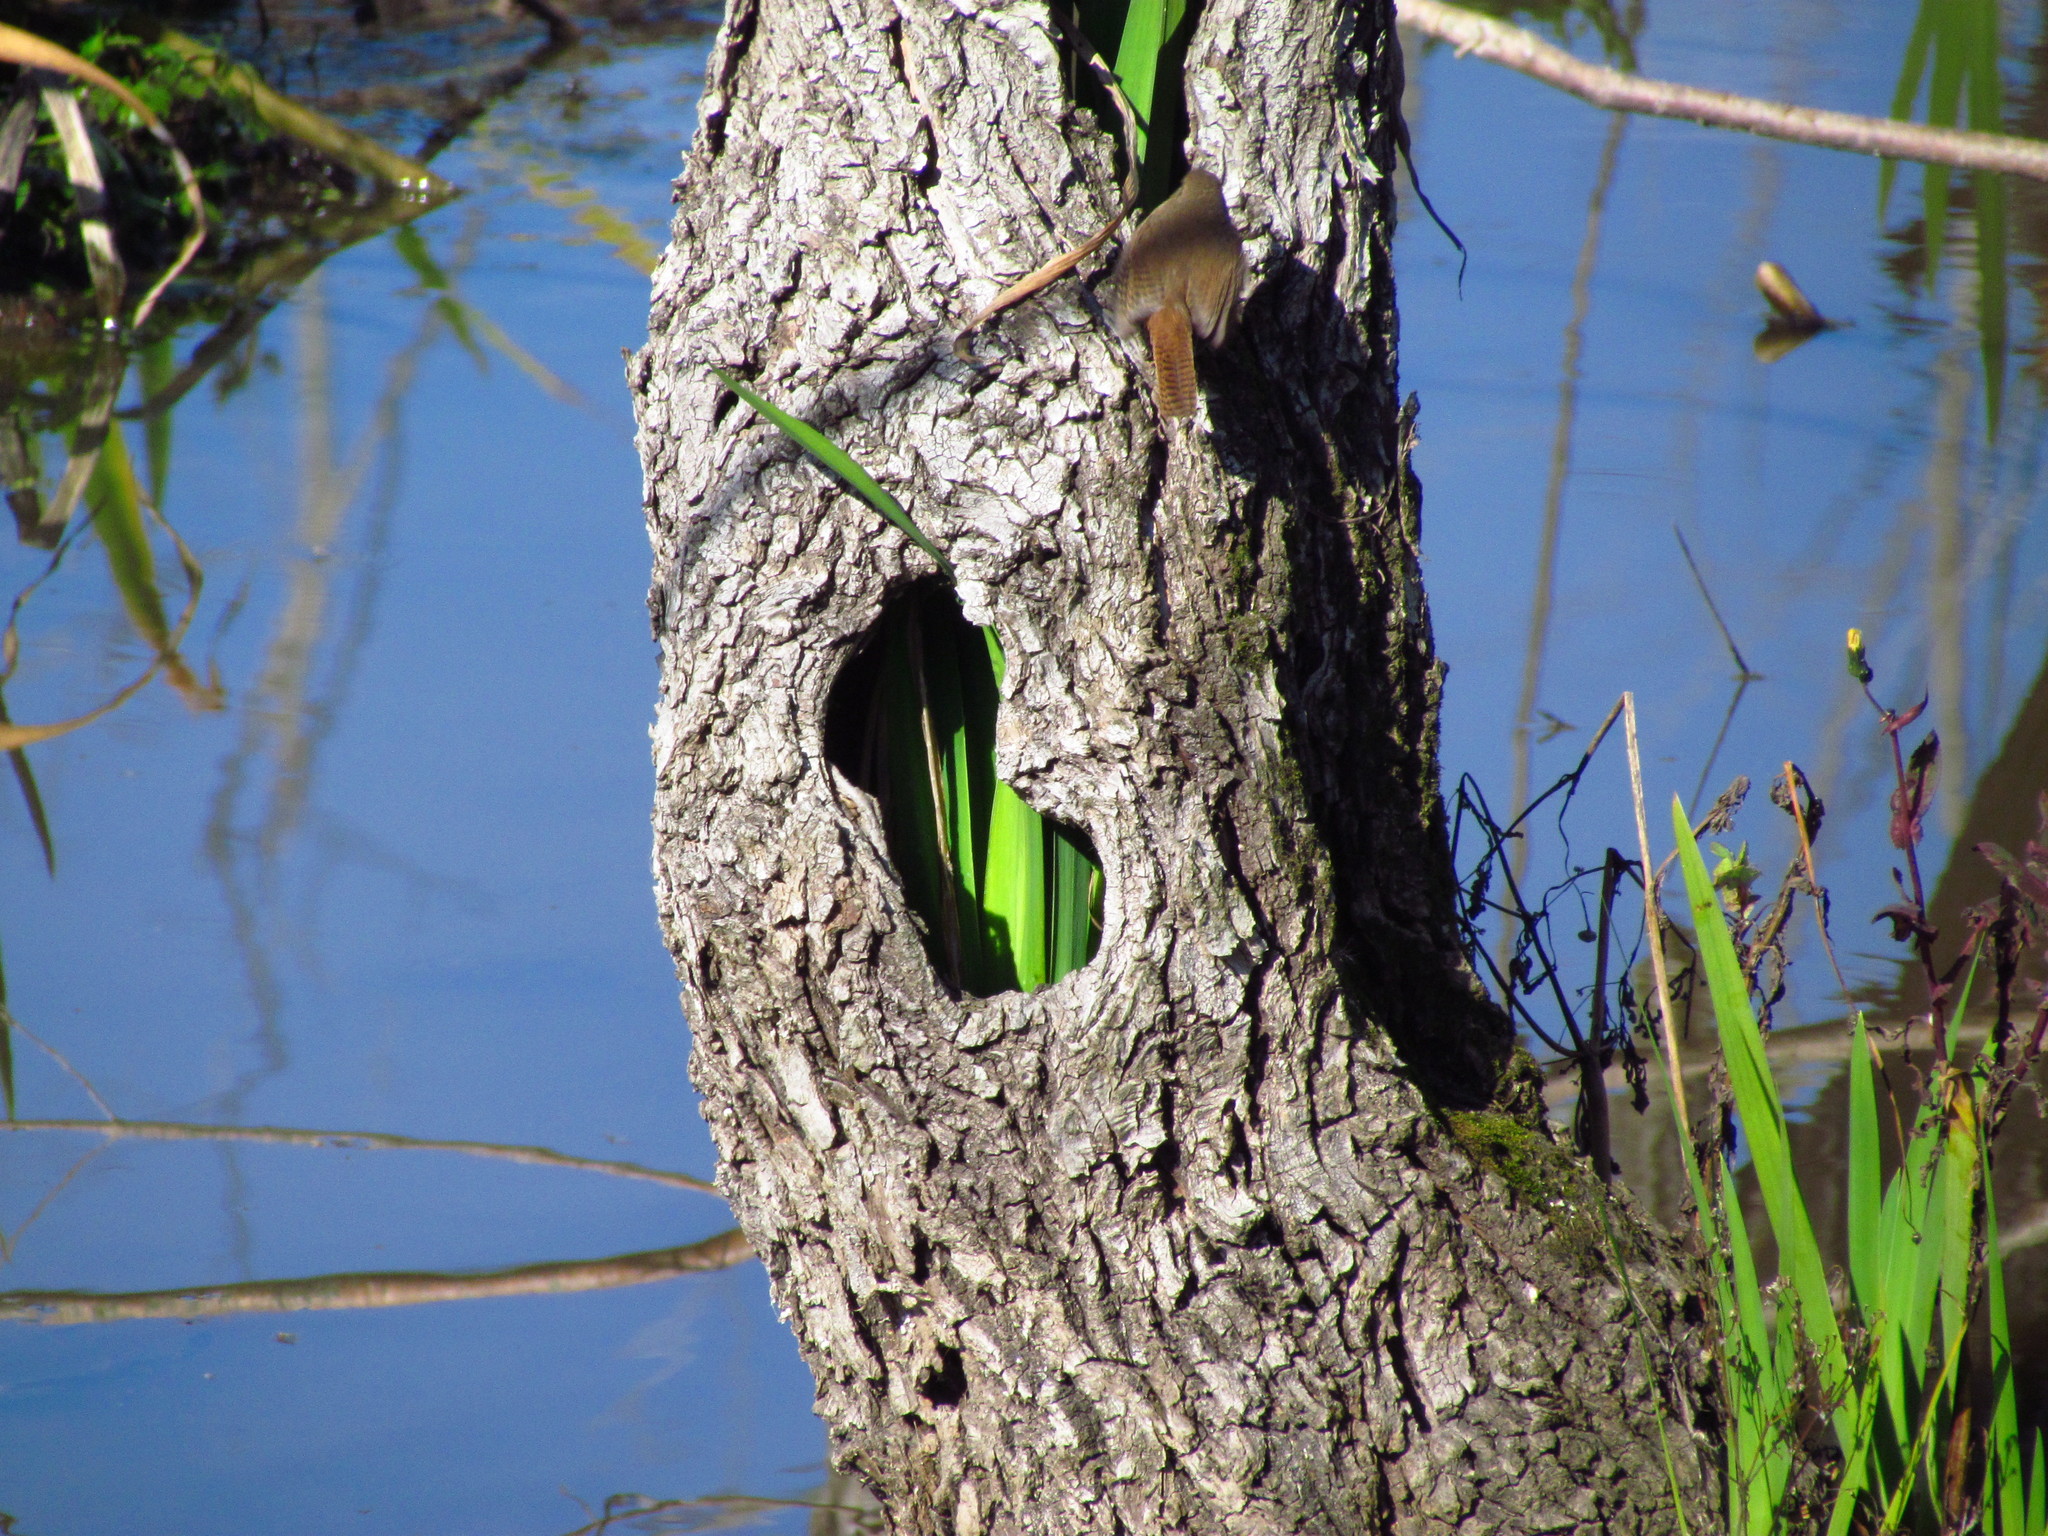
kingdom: Animalia
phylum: Chordata
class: Aves
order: Passeriformes
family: Troglodytidae
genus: Troglodytes
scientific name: Troglodytes aedon
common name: House wren
